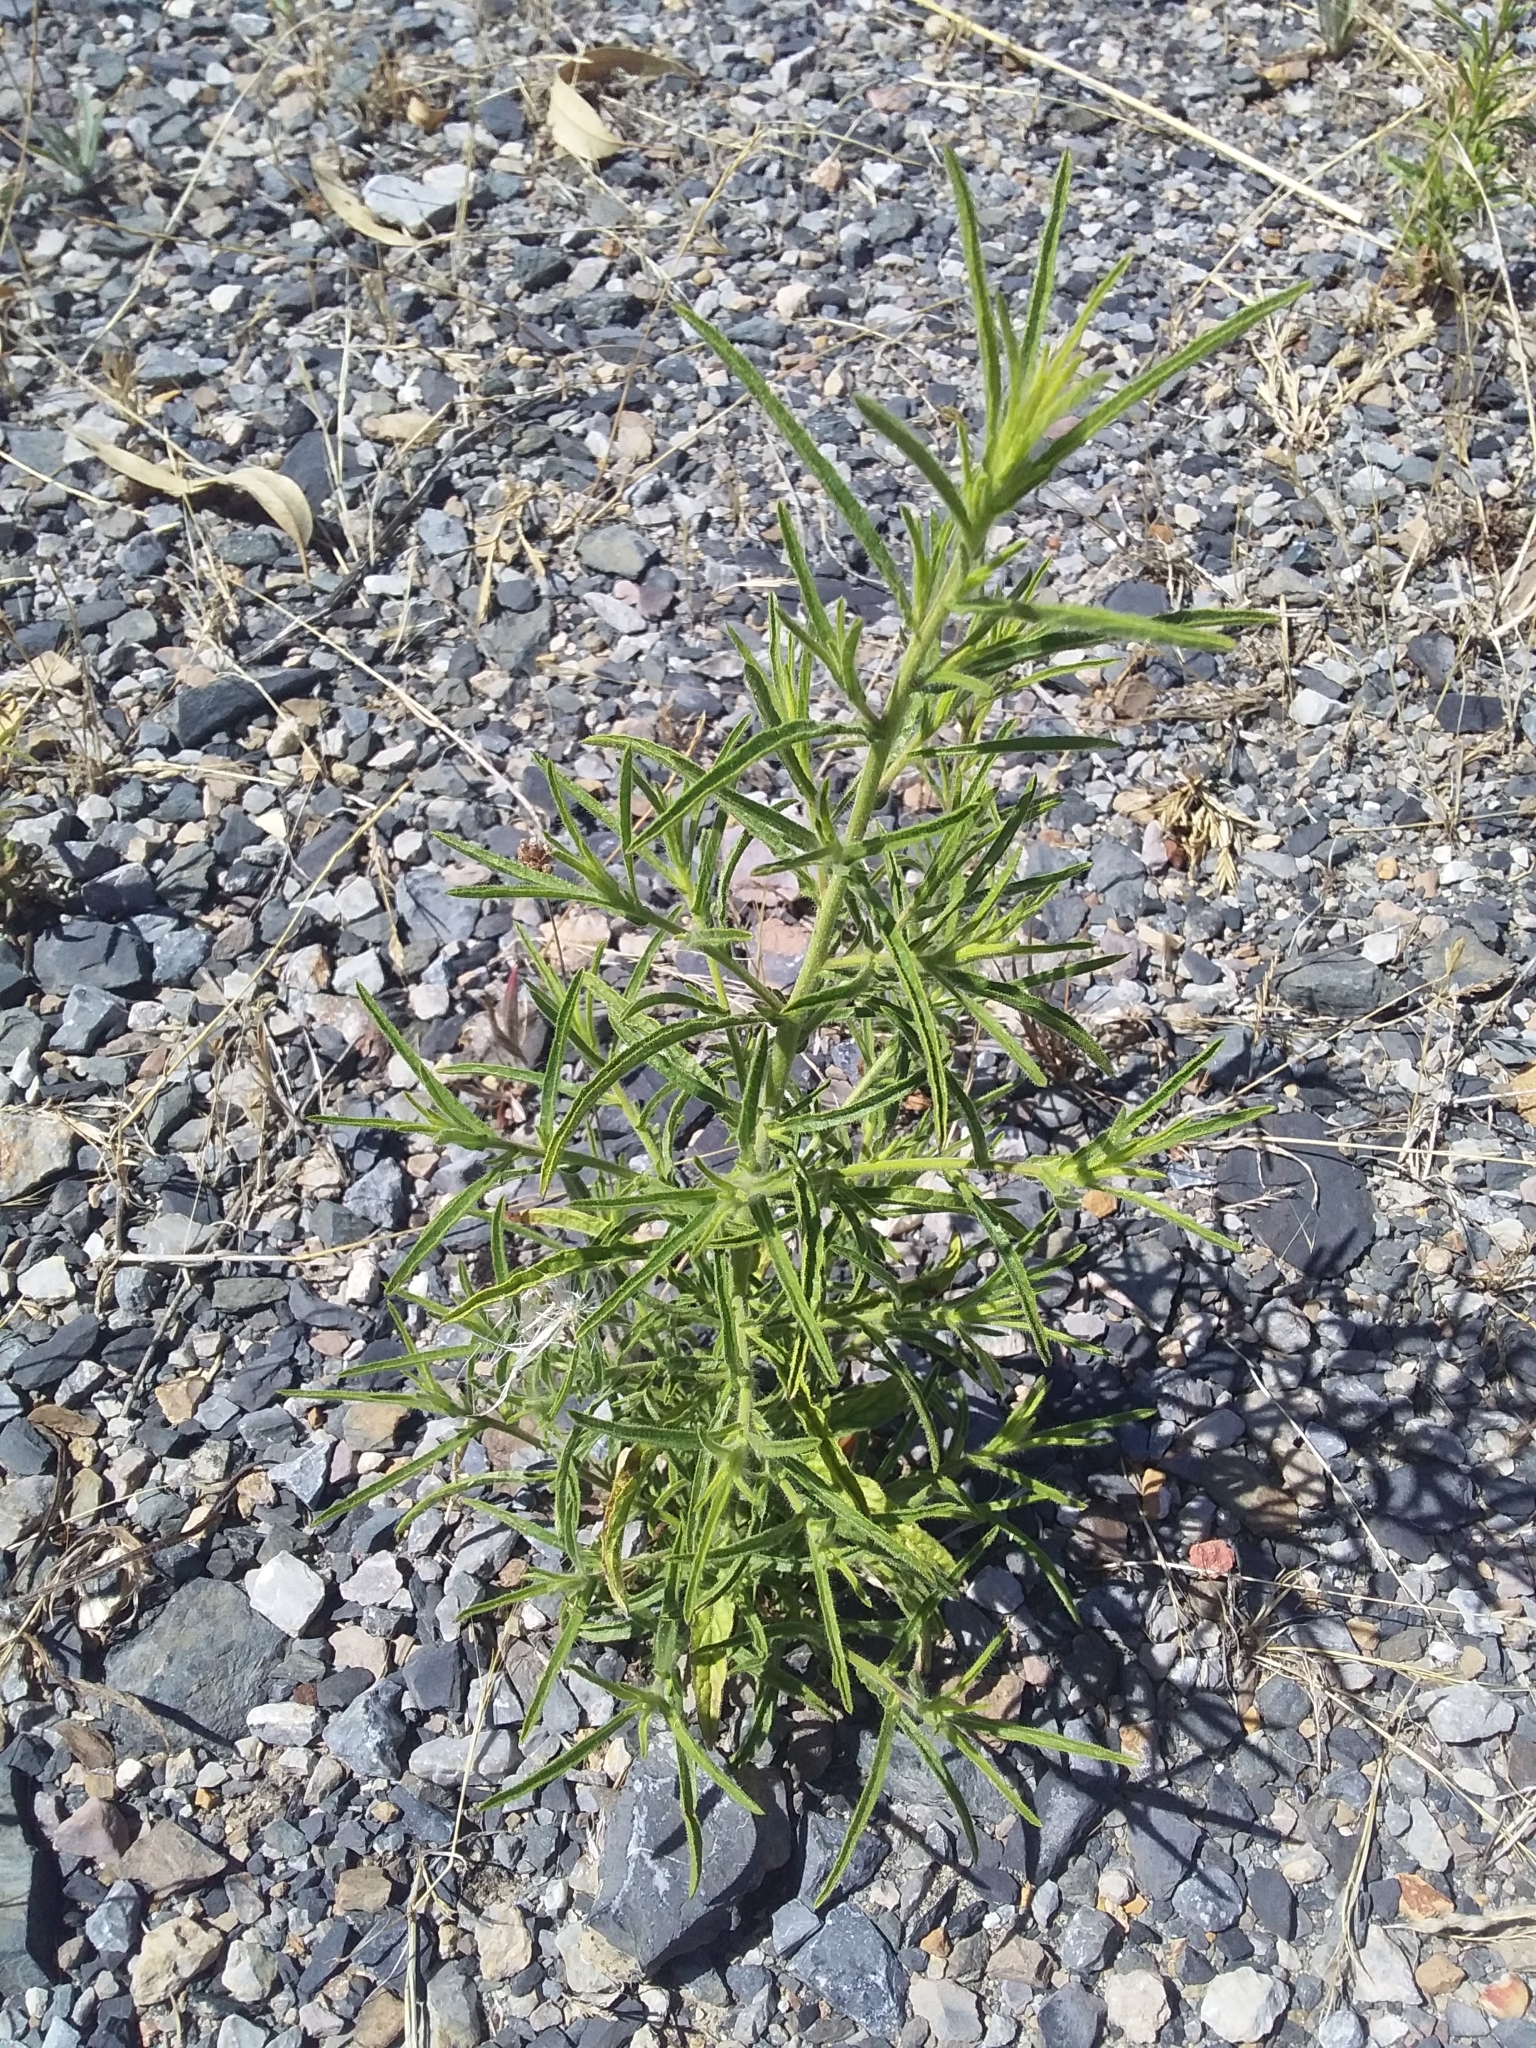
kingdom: Plantae
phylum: Tracheophyta
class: Magnoliopsida
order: Asterales
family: Asteraceae
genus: Dittrichia
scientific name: Dittrichia graveolens
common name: Stinking fleabane
